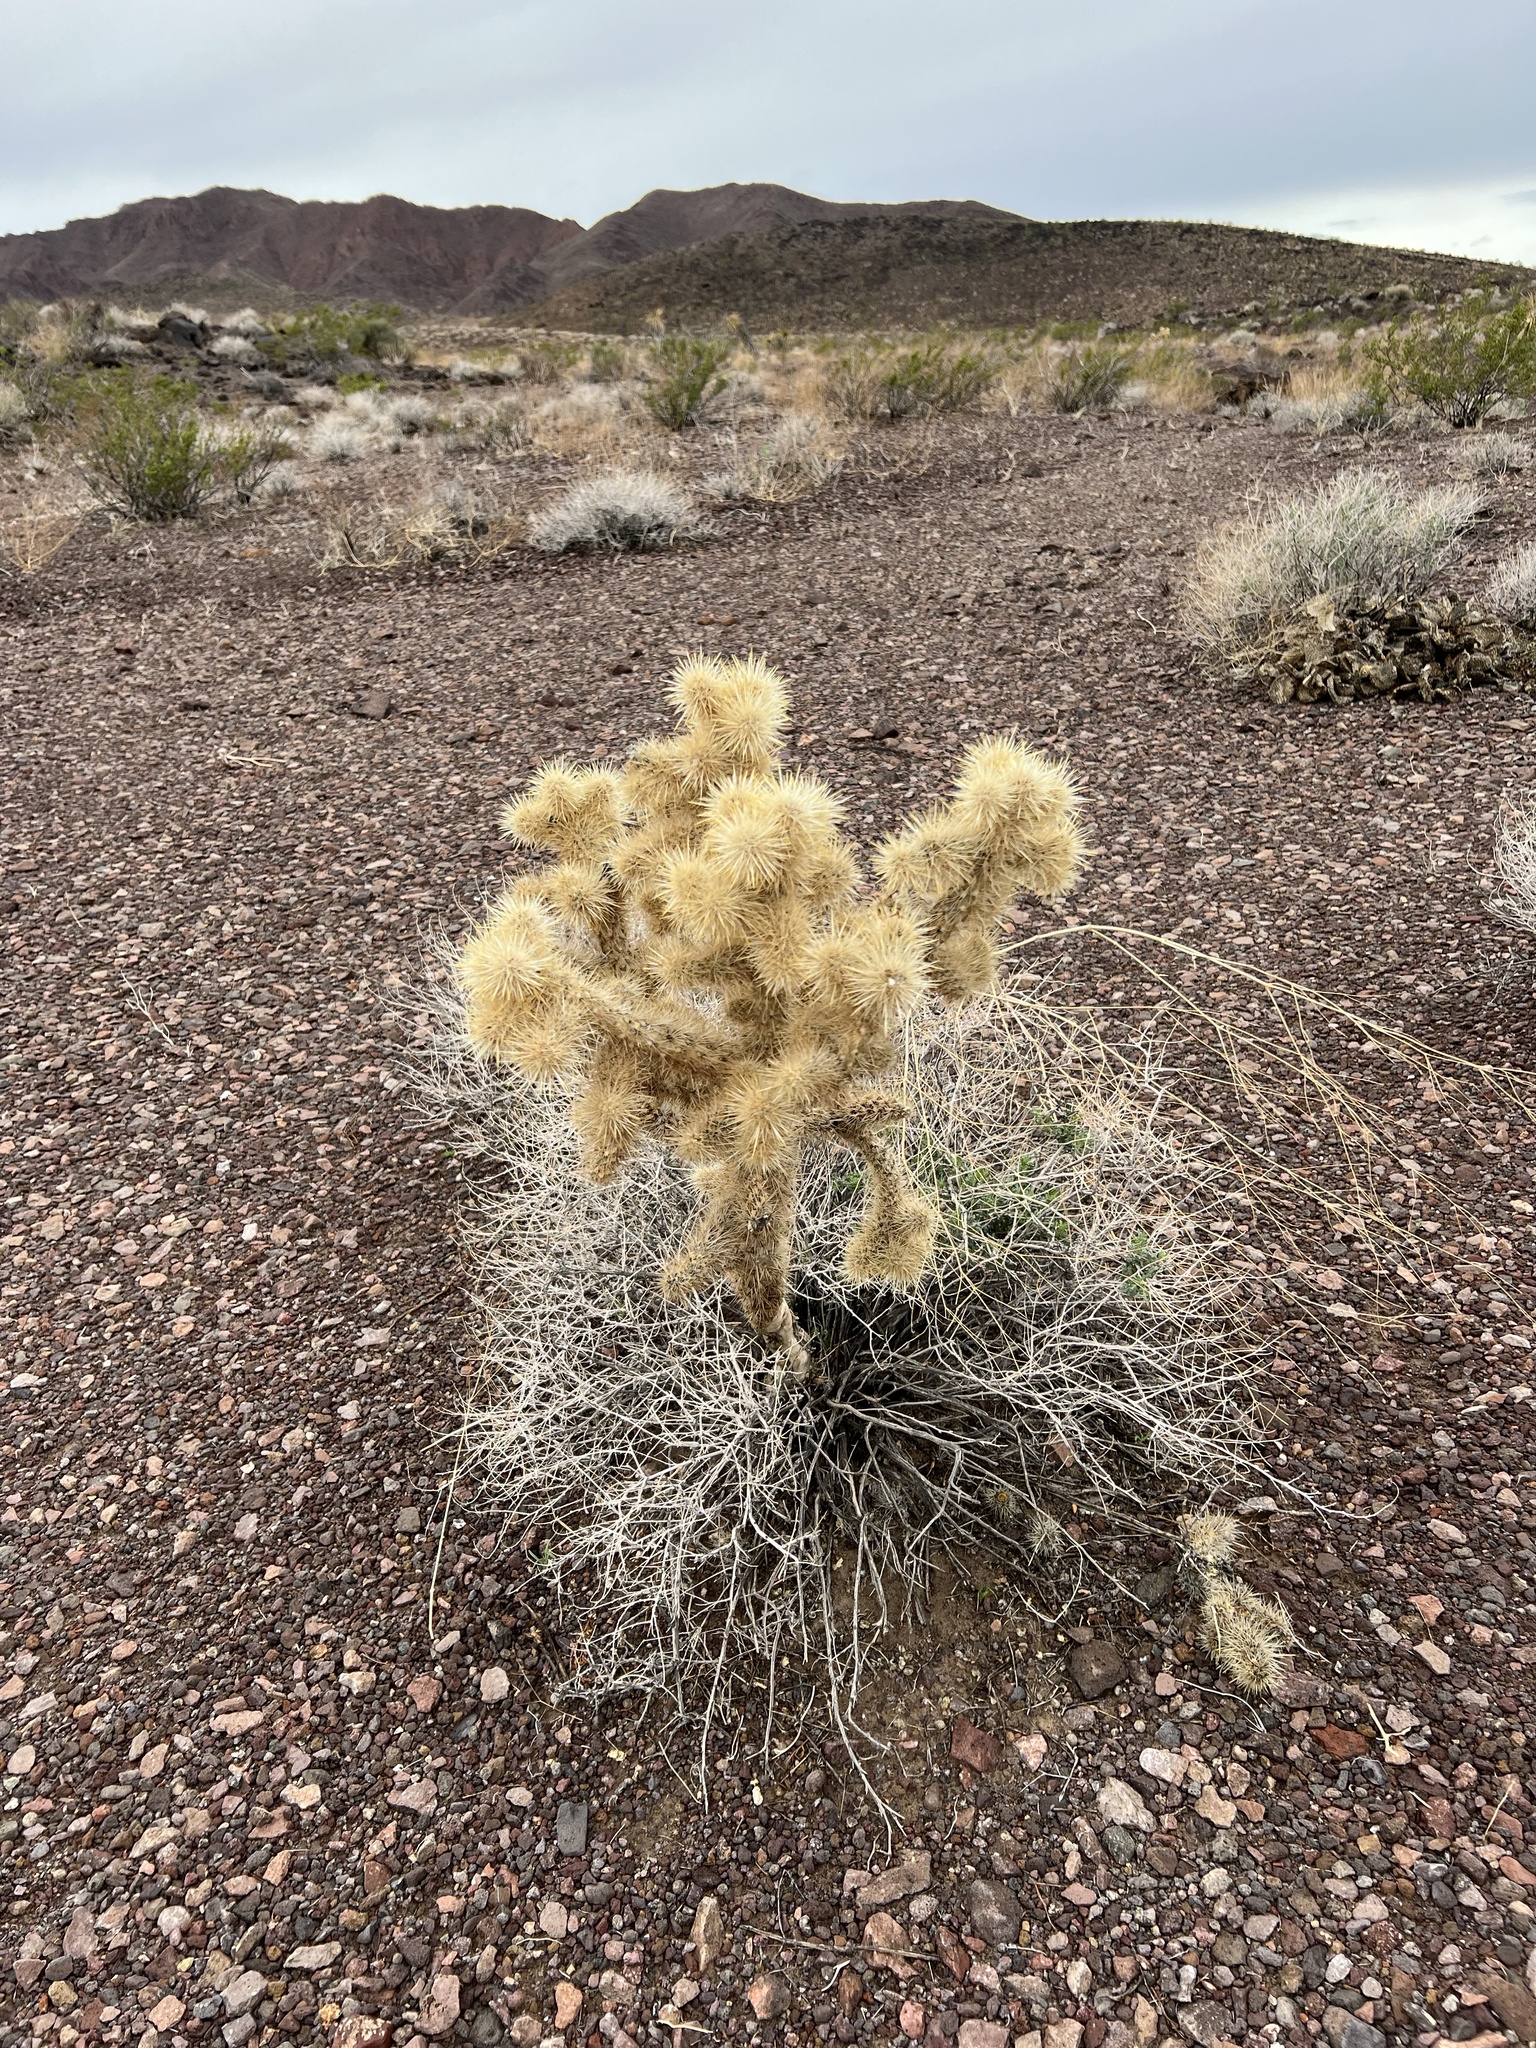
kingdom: Plantae
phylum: Tracheophyta
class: Magnoliopsida
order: Caryophyllales
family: Cactaceae
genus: Cylindropuntia
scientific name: Cylindropuntia echinocarpa
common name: Ground cholla
